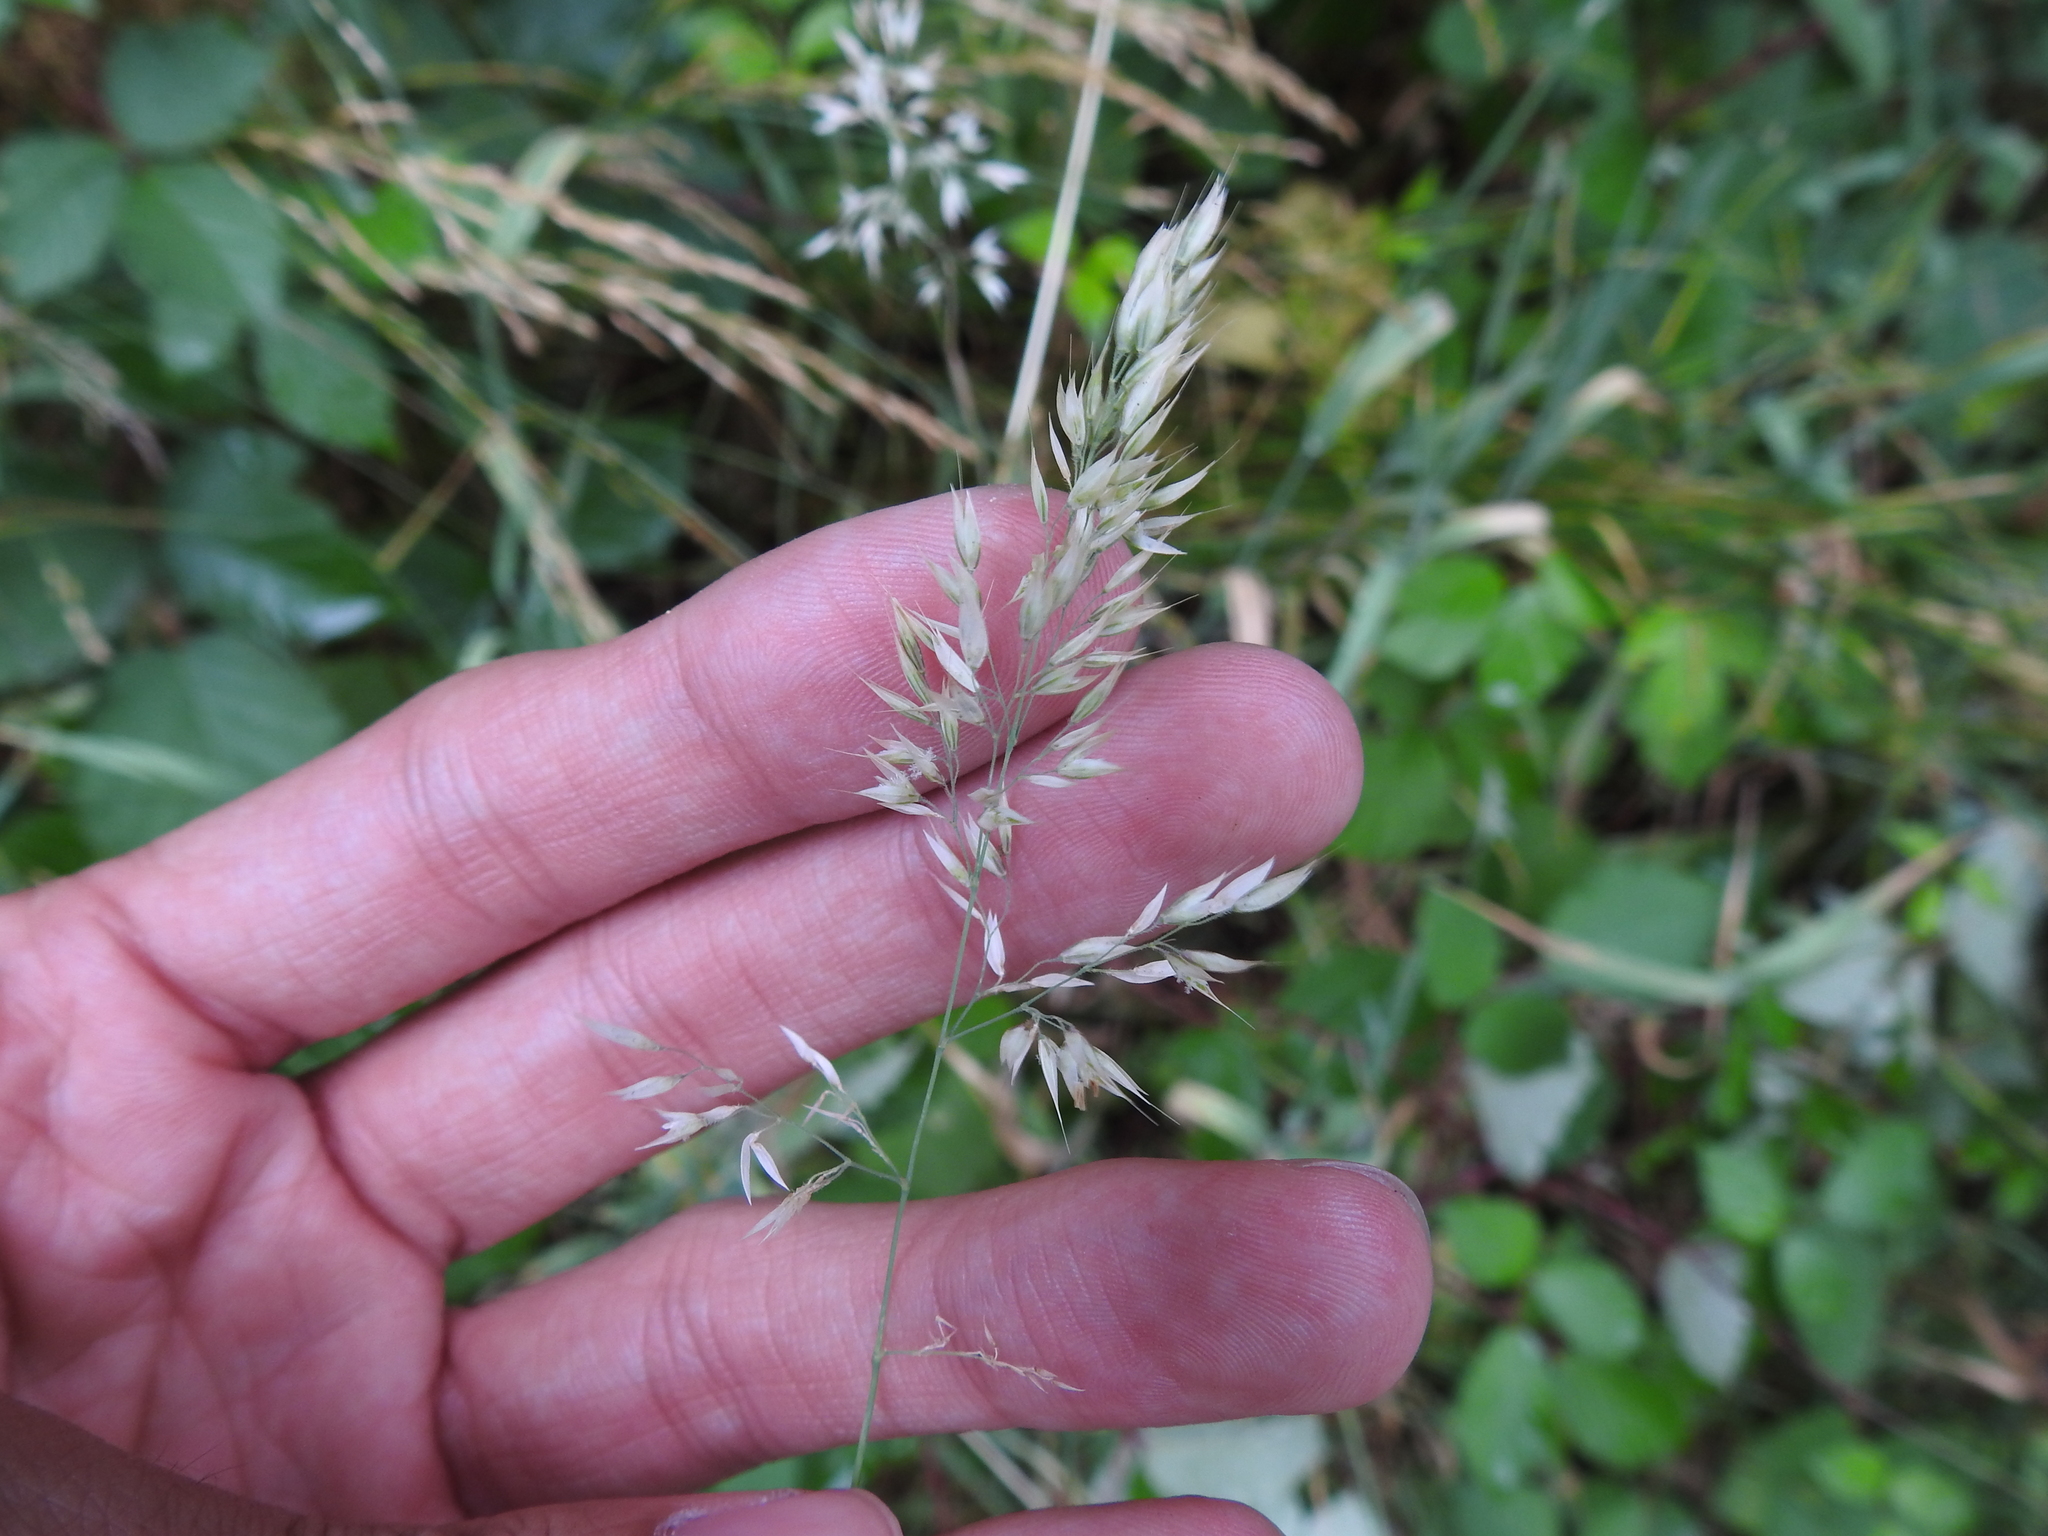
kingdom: Plantae
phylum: Tracheophyta
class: Liliopsida
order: Poales
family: Poaceae
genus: Holcus
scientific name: Holcus lanatus
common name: Yorkshire-fog
